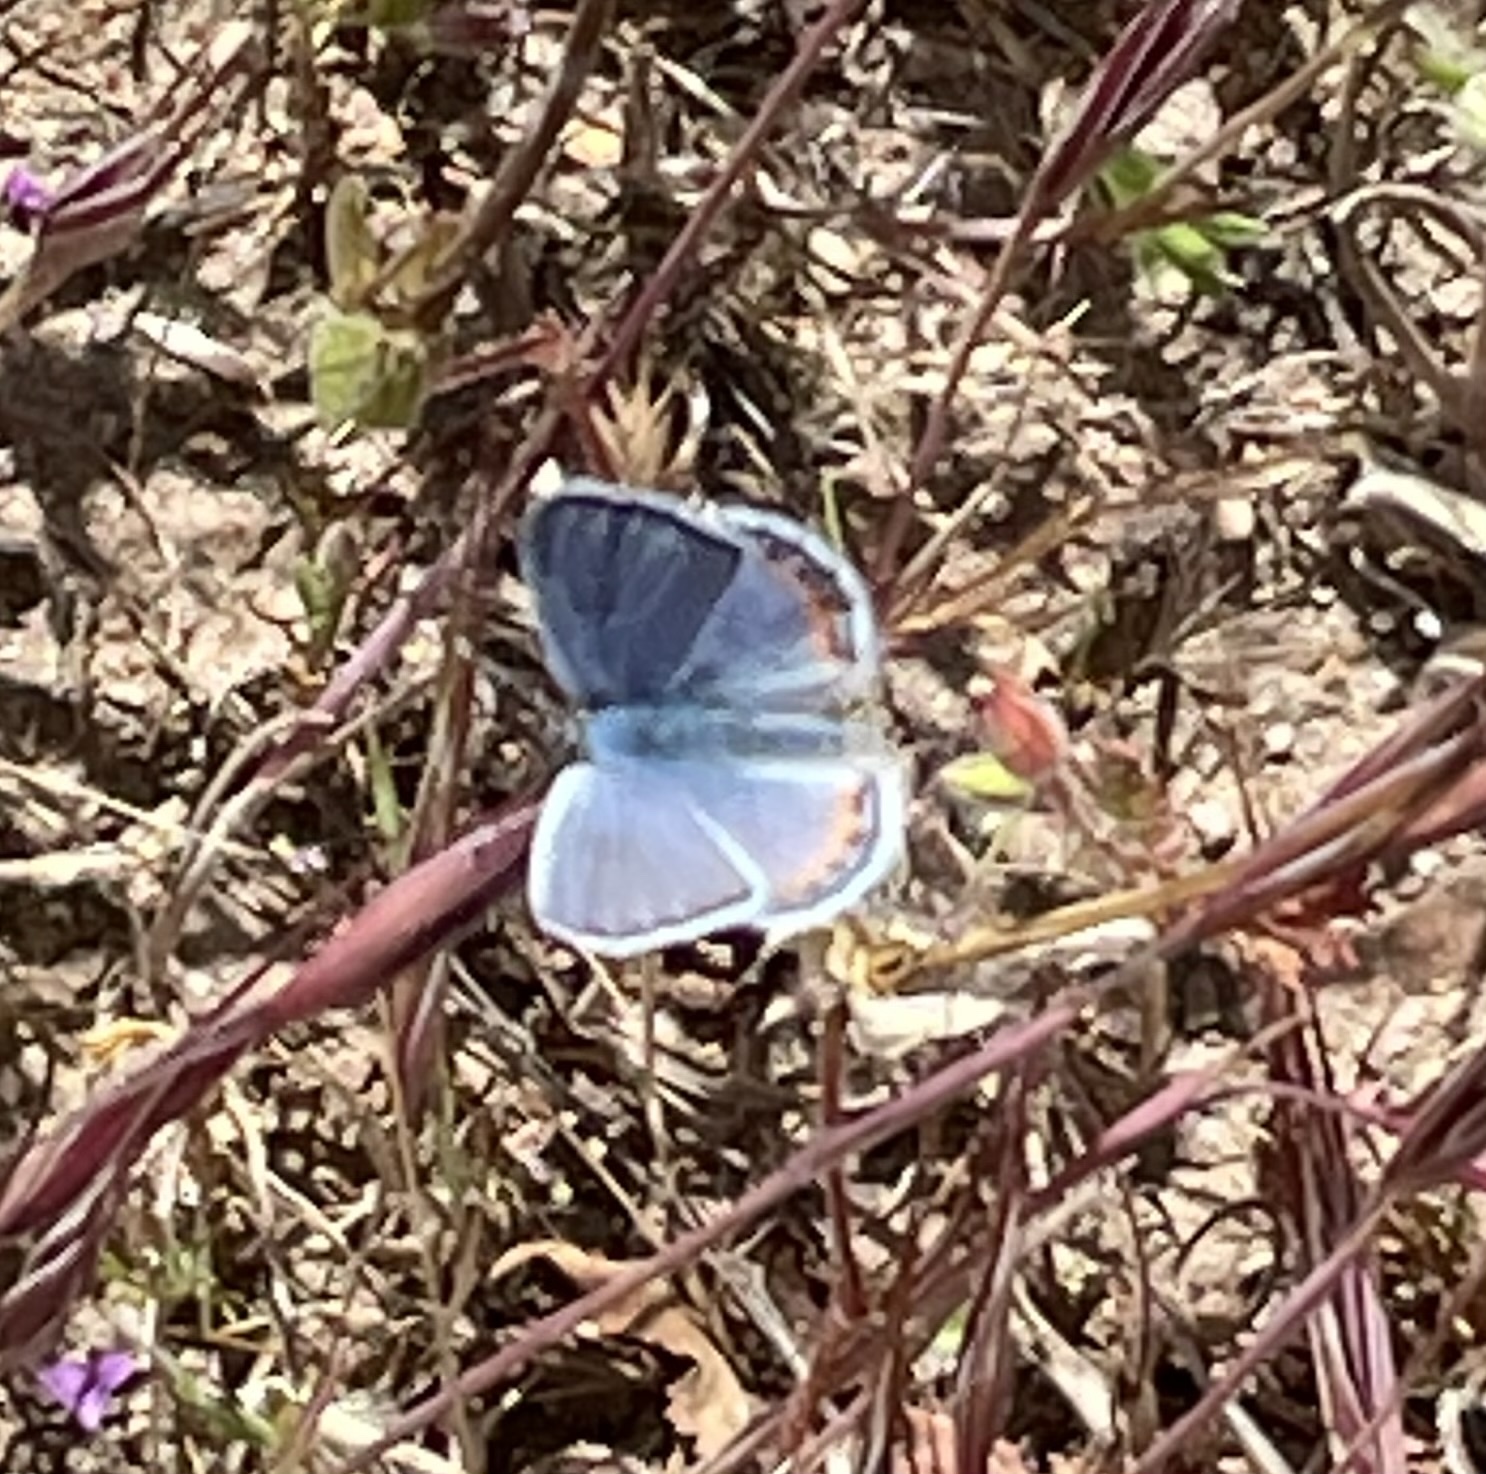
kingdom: Animalia
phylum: Arthropoda
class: Insecta
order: Lepidoptera
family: Lycaenidae
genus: Icaricia
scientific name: Icaricia acmon
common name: Acmon blue
